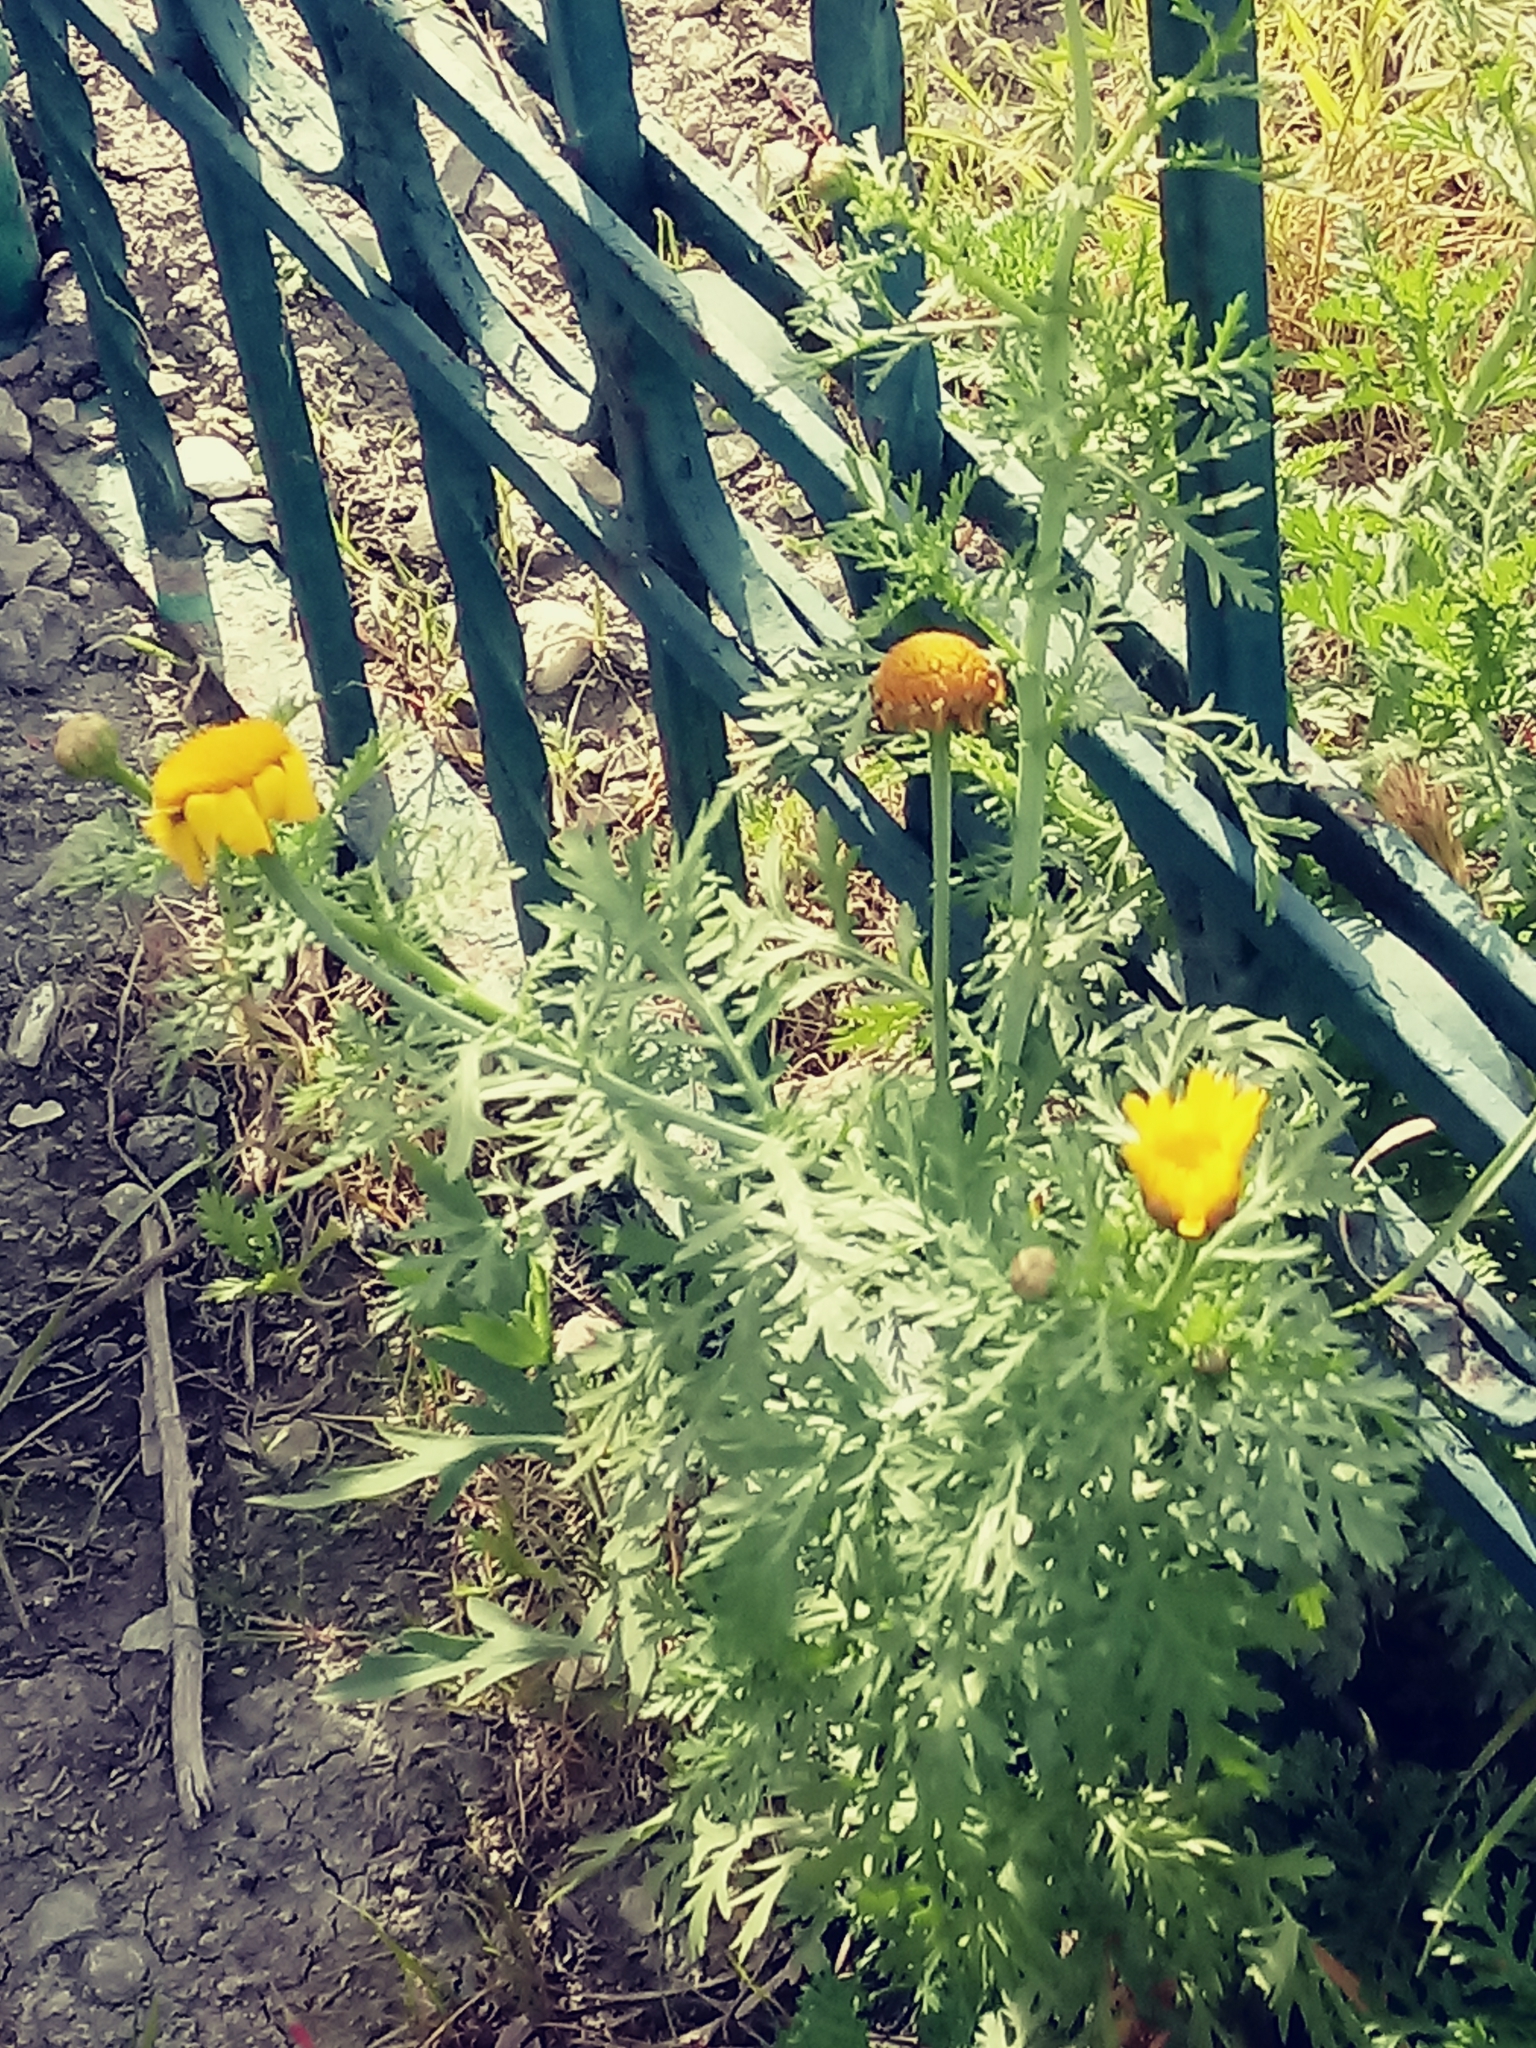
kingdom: Plantae
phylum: Tracheophyta
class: Magnoliopsida
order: Asterales
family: Asteraceae
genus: Glebionis
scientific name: Glebionis coronaria
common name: Crowndaisy
